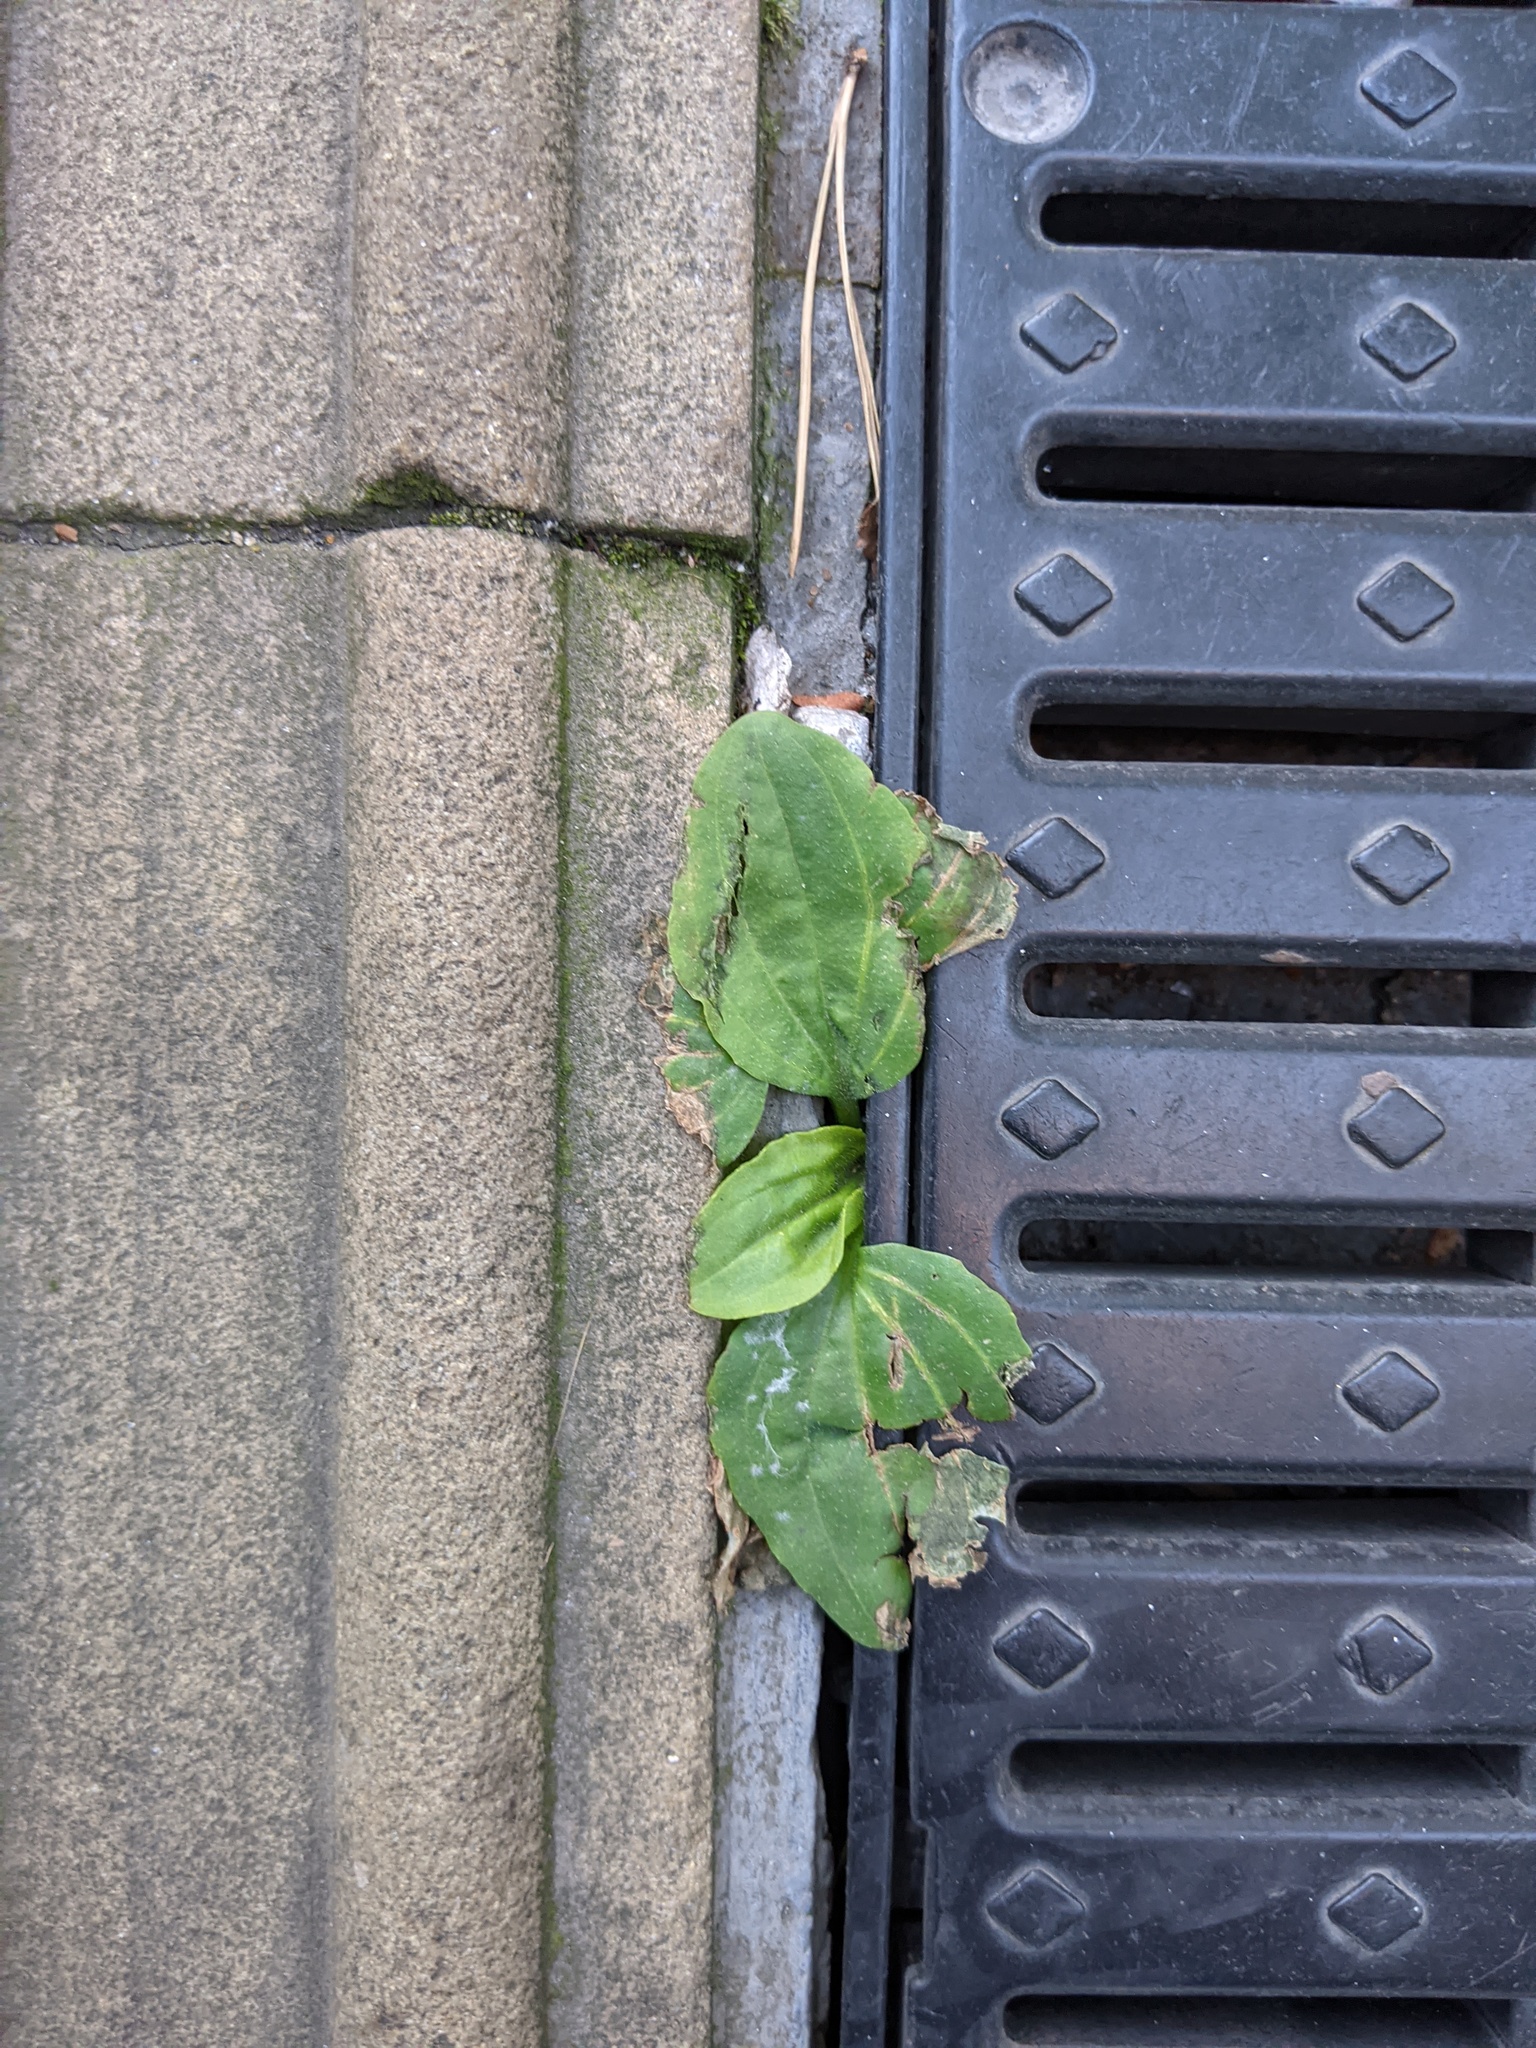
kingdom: Plantae
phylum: Tracheophyta
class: Magnoliopsida
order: Lamiales
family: Plantaginaceae
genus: Plantago
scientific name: Plantago major
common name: Common plantain
